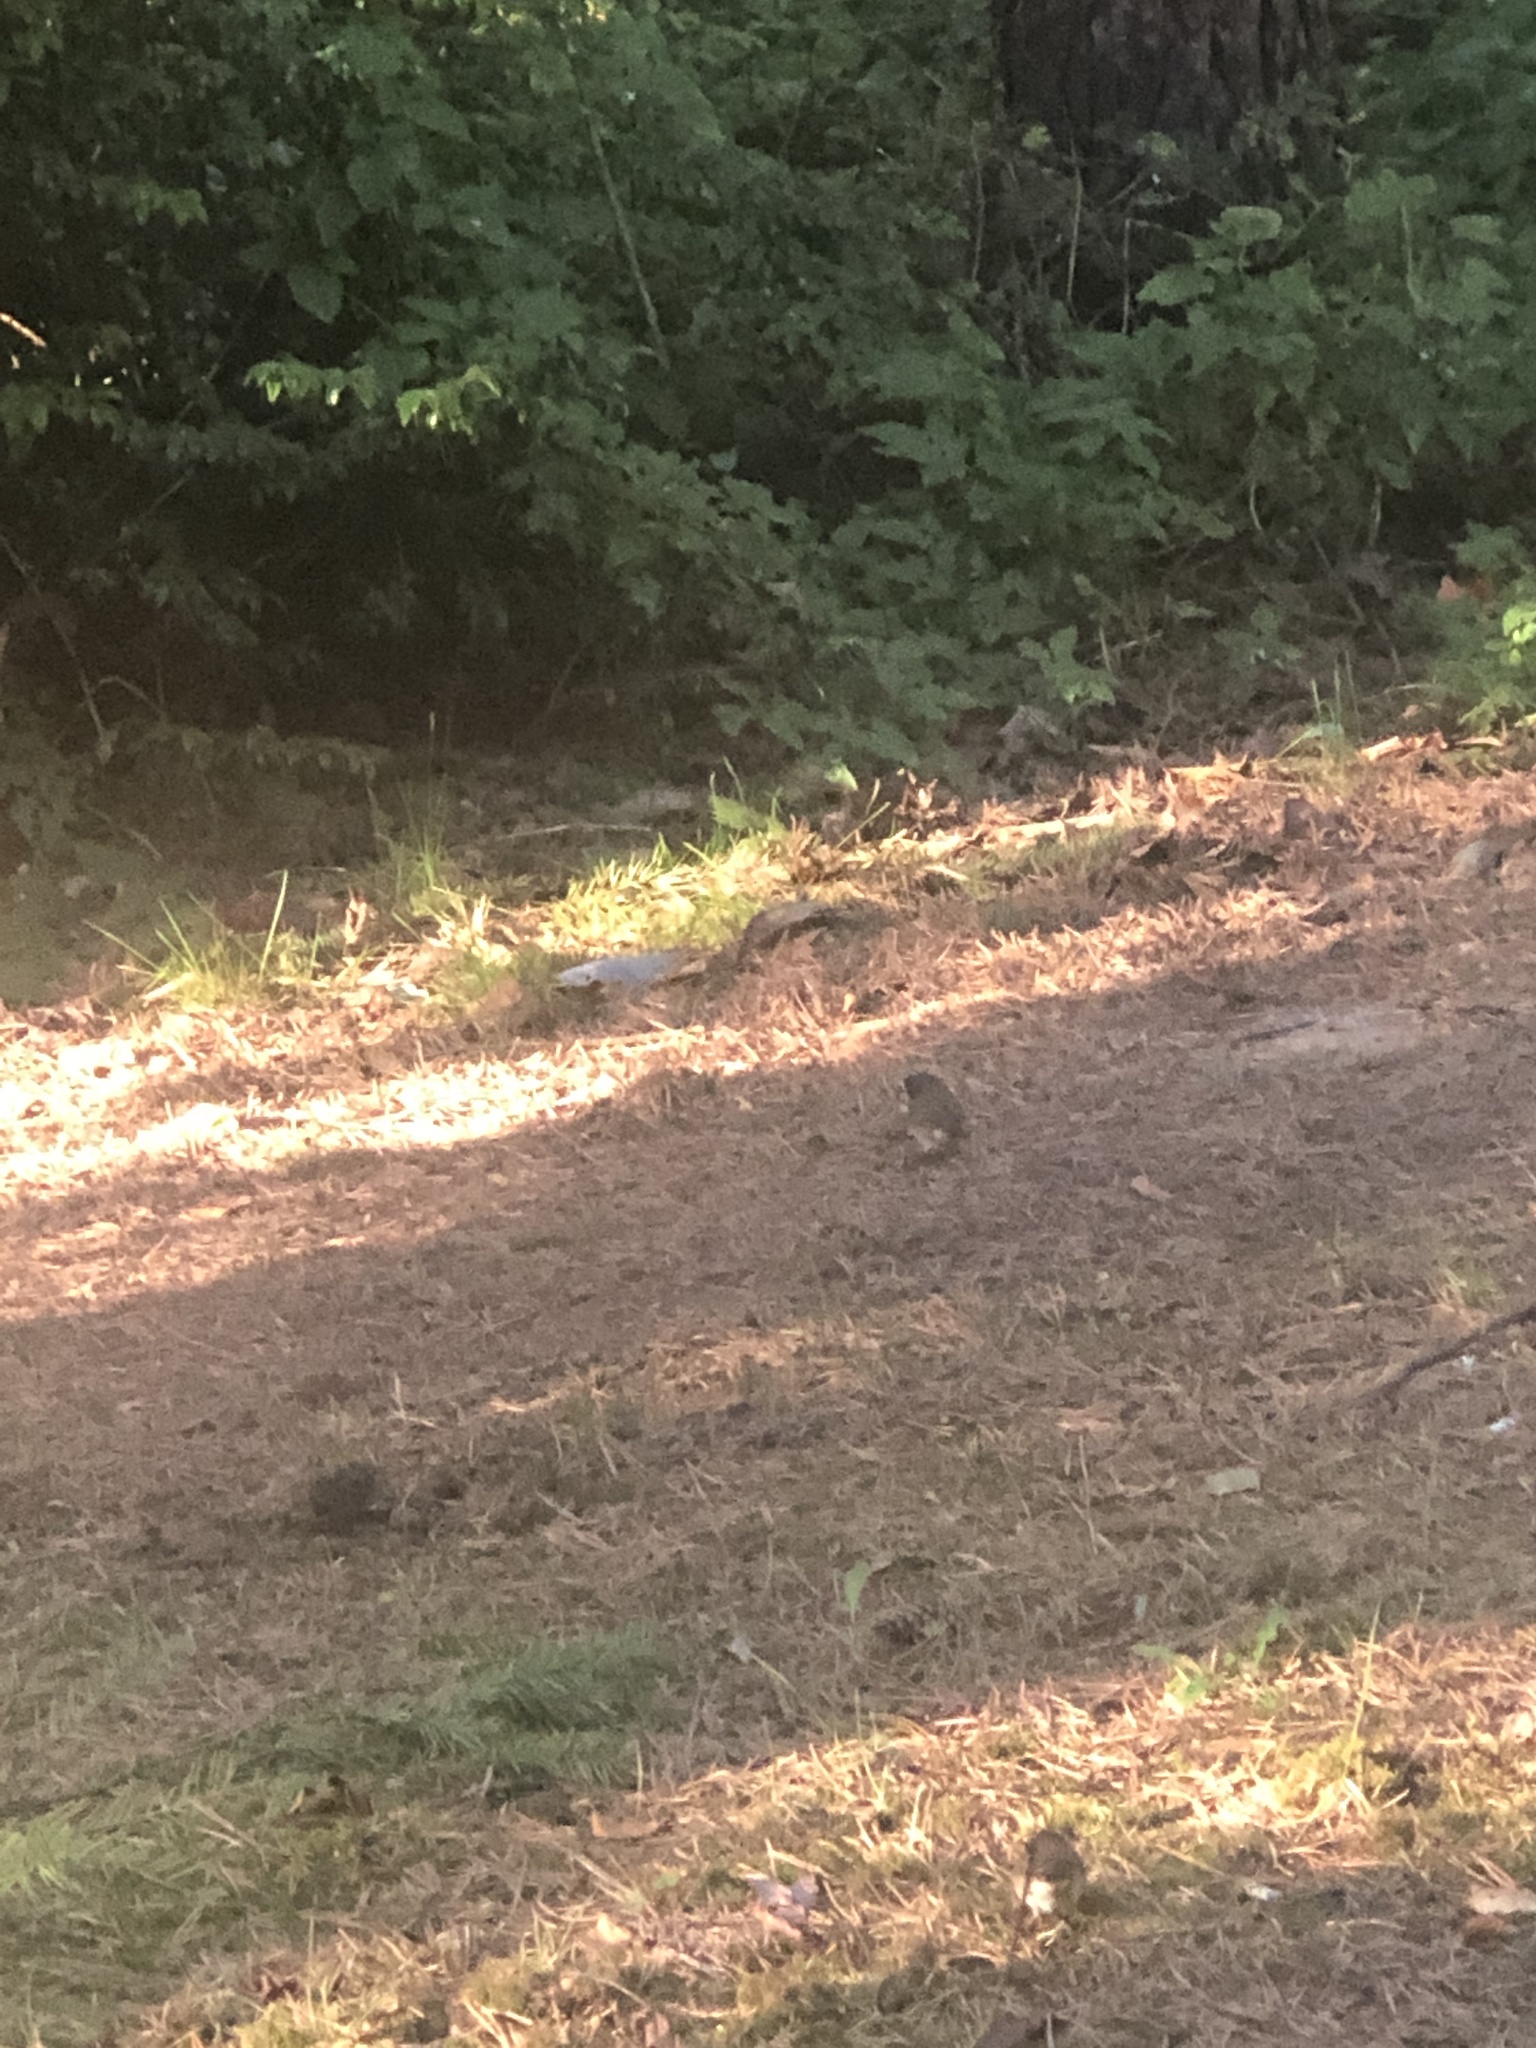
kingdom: Animalia
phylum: Chordata
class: Aves
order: Passeriformes
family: Passerellidae
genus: Junco
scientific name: Junco hyemalis
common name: Dark-eyed junco
